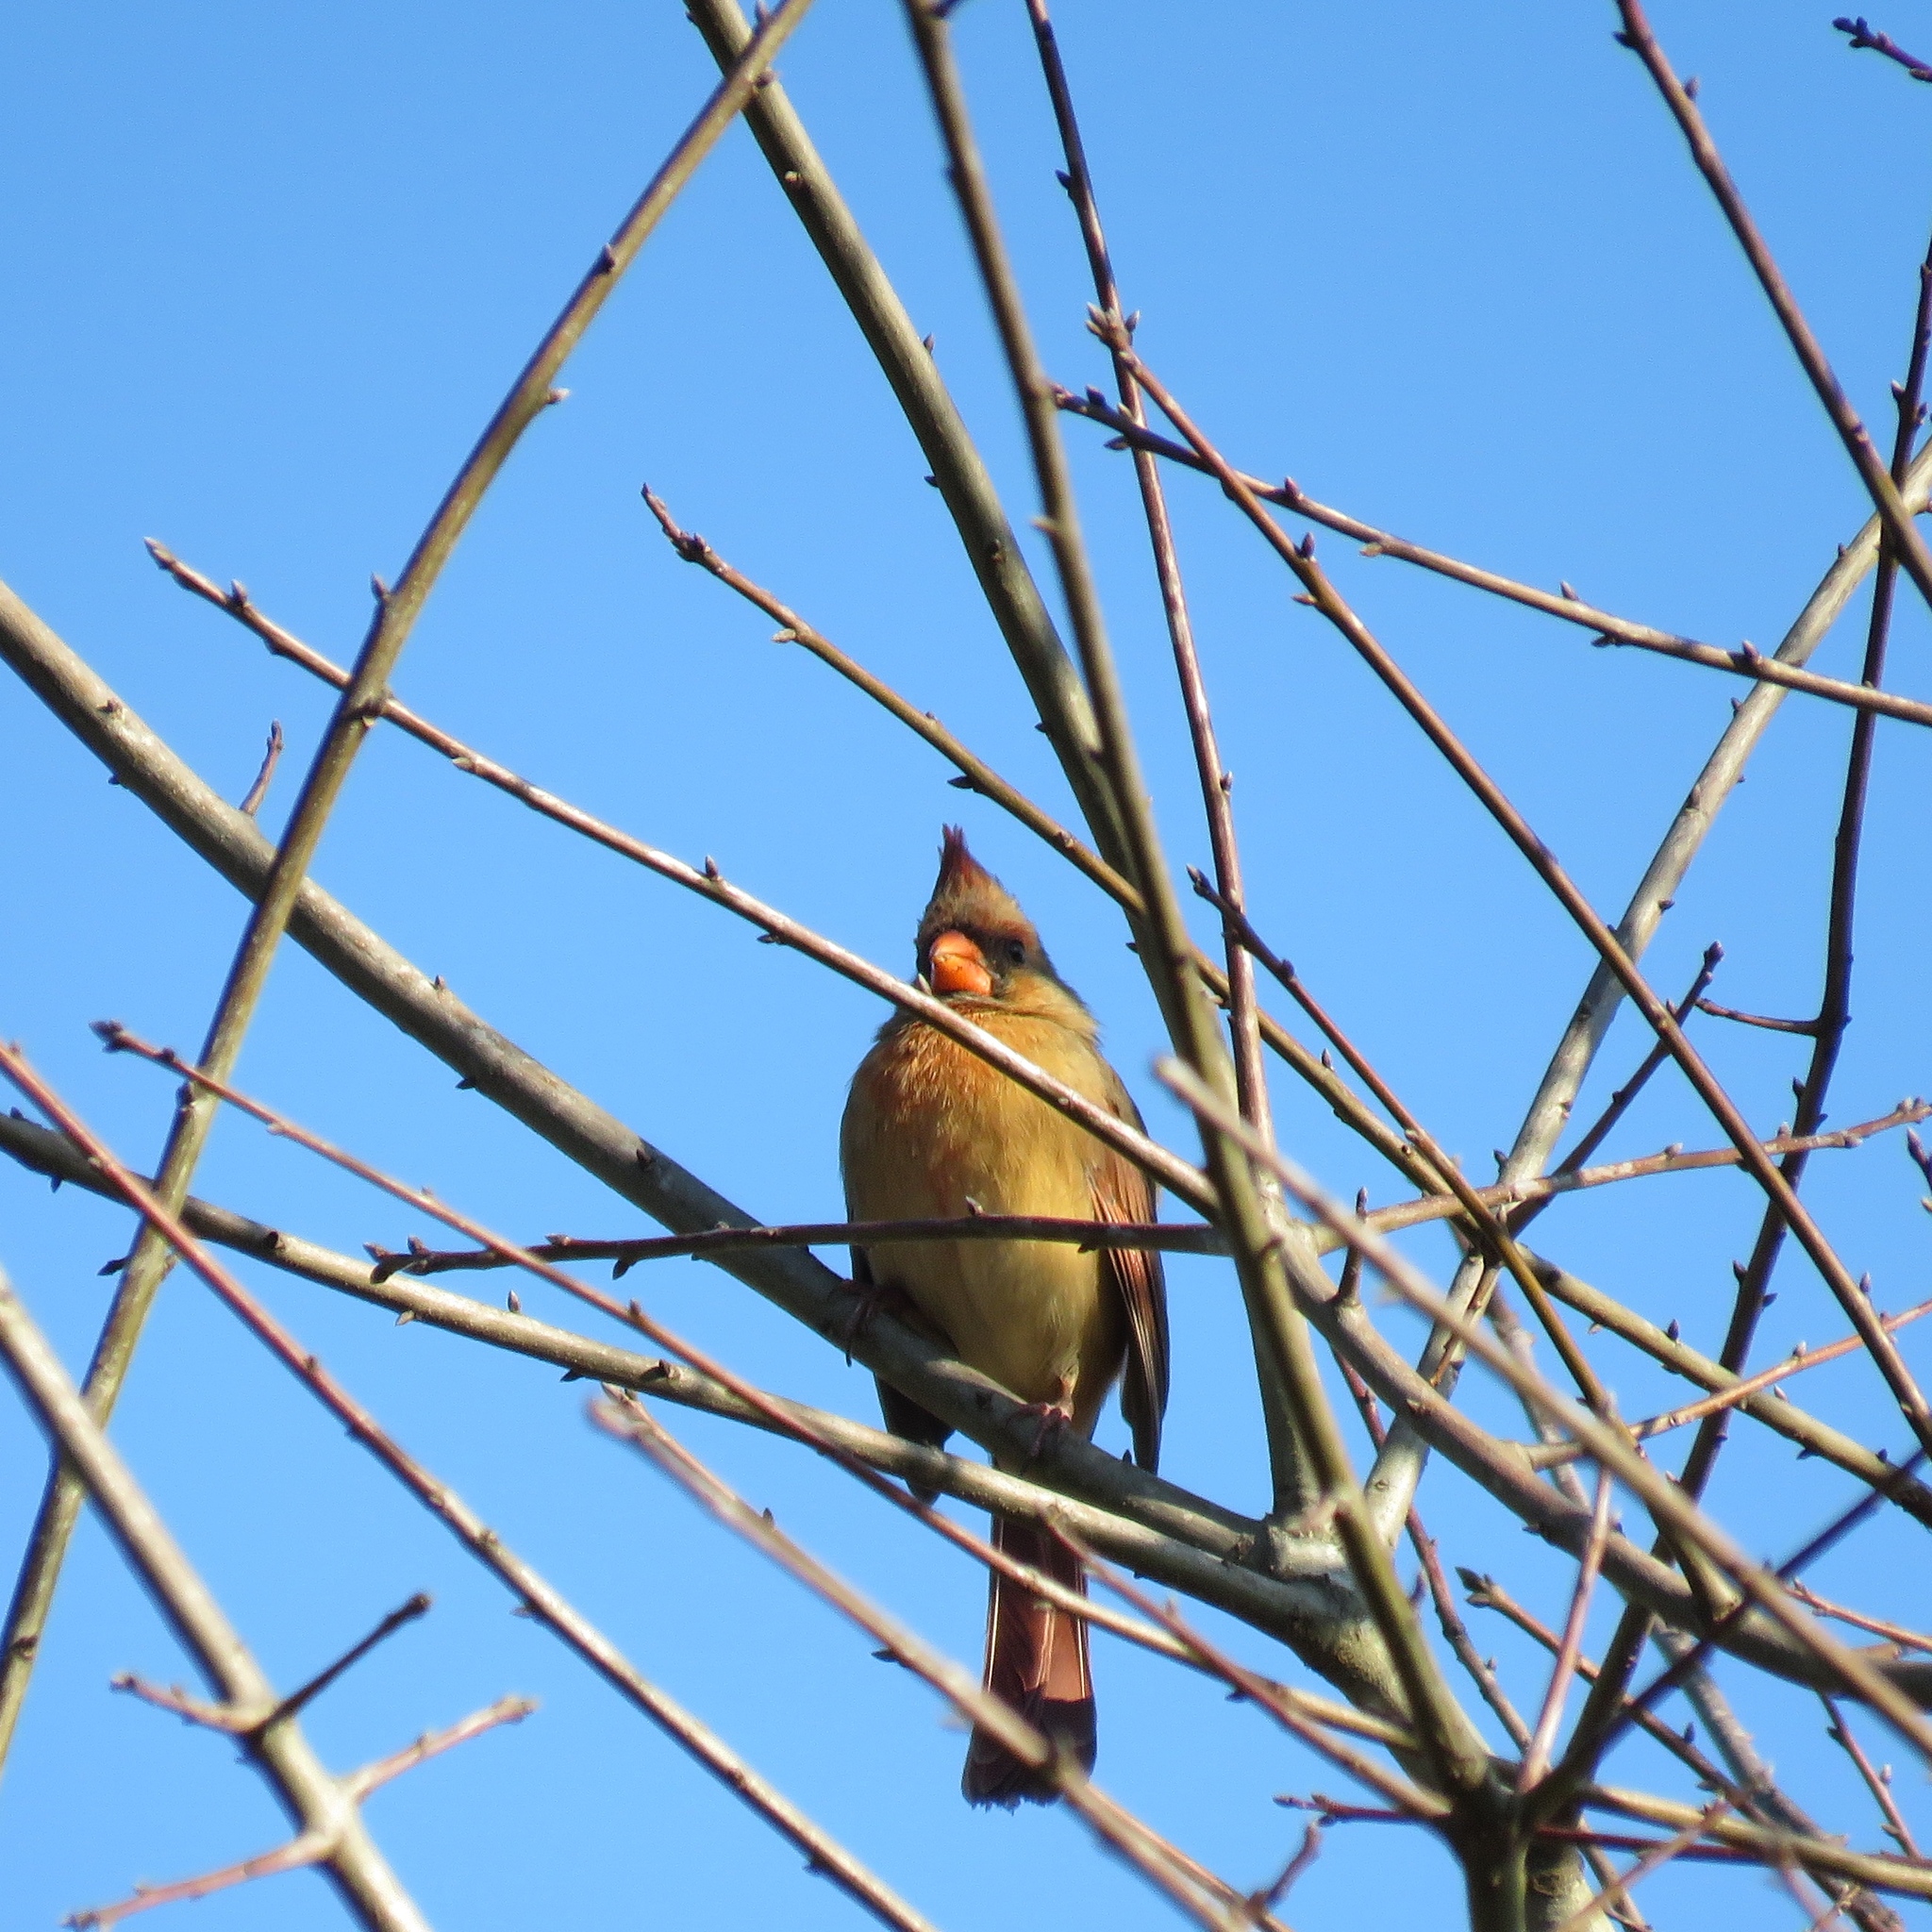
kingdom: Animalia
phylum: Chordata
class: Aves
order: Passeriformes
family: Cardinalidae
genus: Cardinalis
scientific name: Cardinalis cardinalis
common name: Northern cardinal
